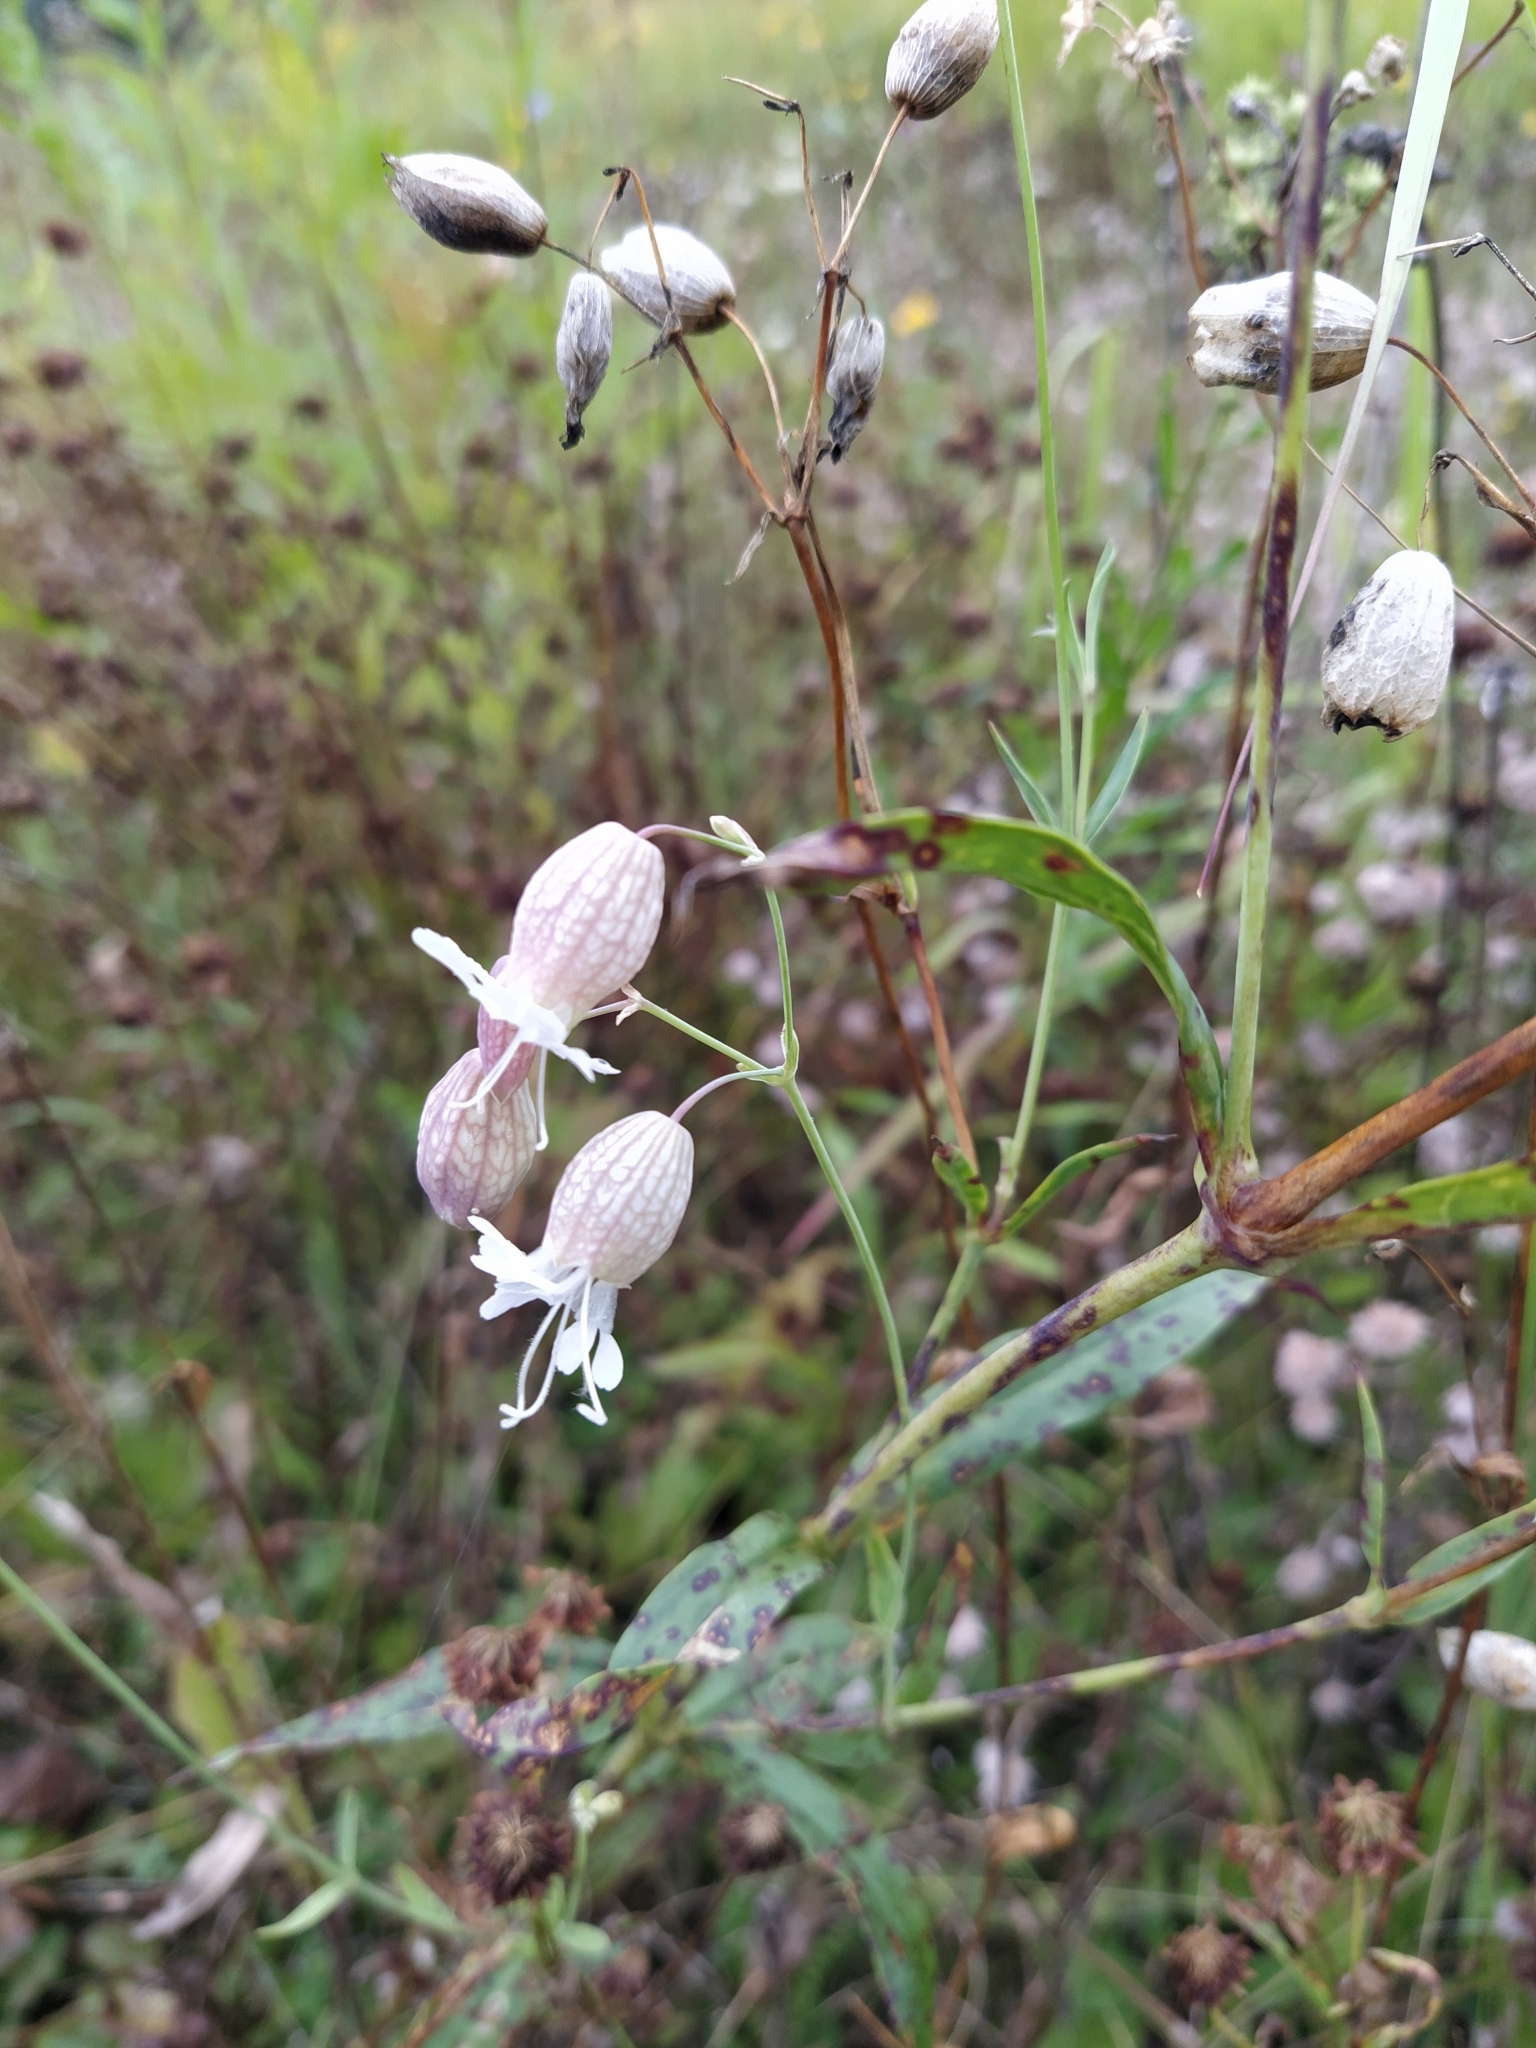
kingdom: Plantae
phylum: Tracheophyta
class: Magnoliopsida
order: Caryophyllales
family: Caryophyllaceae
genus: Silene
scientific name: Silene vulgaris
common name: Bladder campion
